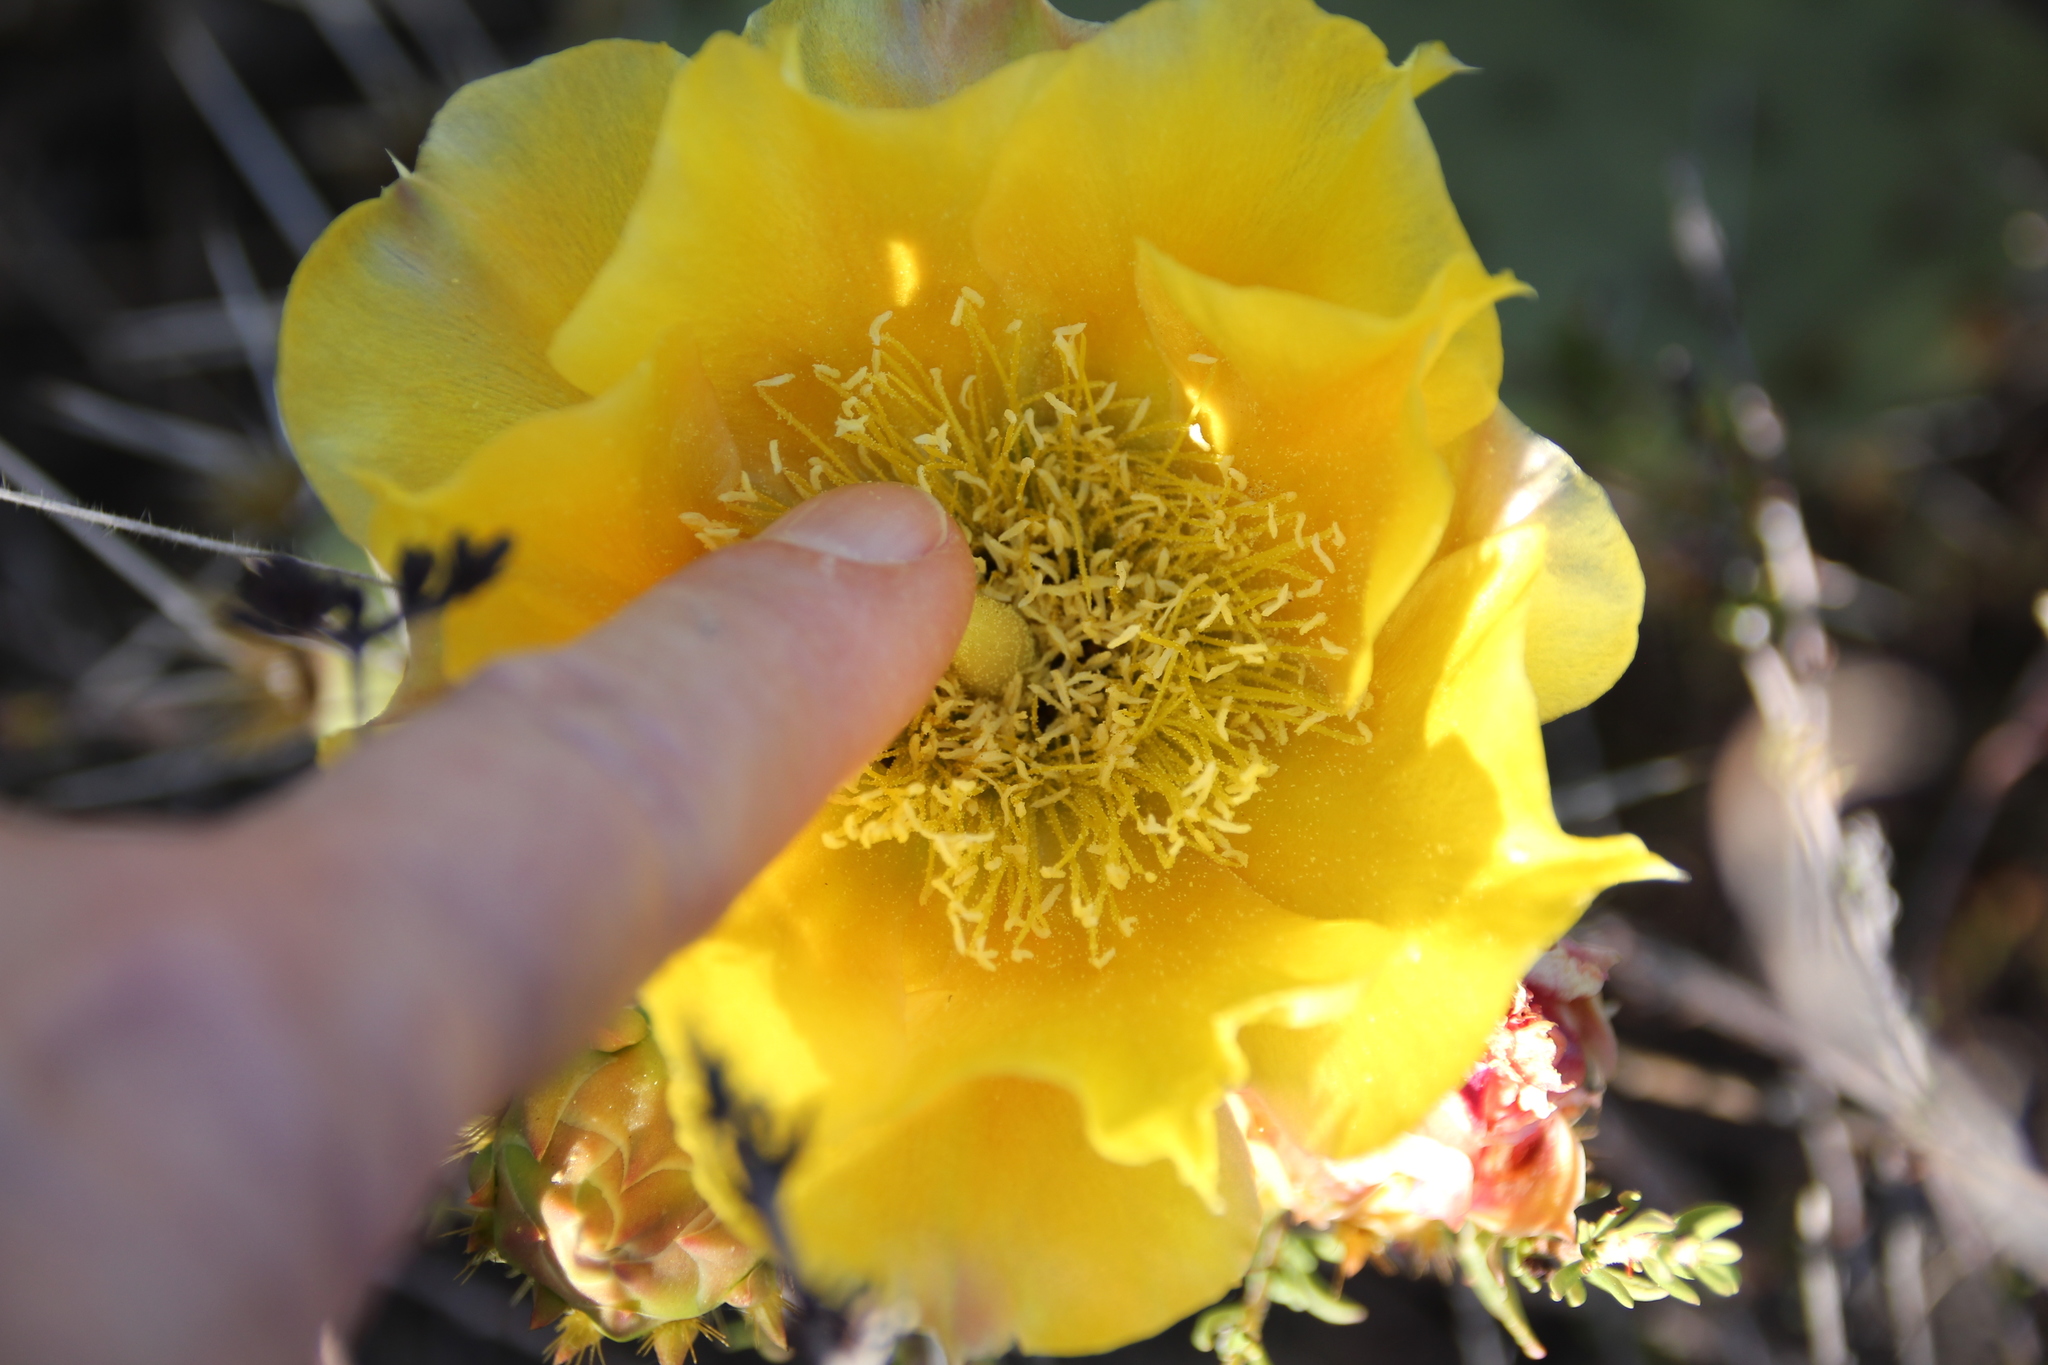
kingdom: Plantae
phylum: Tracheophyta
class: Magnoliopsida
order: Caryophyllales
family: Cactaceae
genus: Opuntia
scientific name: Opuntia littoralis
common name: Coastal prickly-pear
